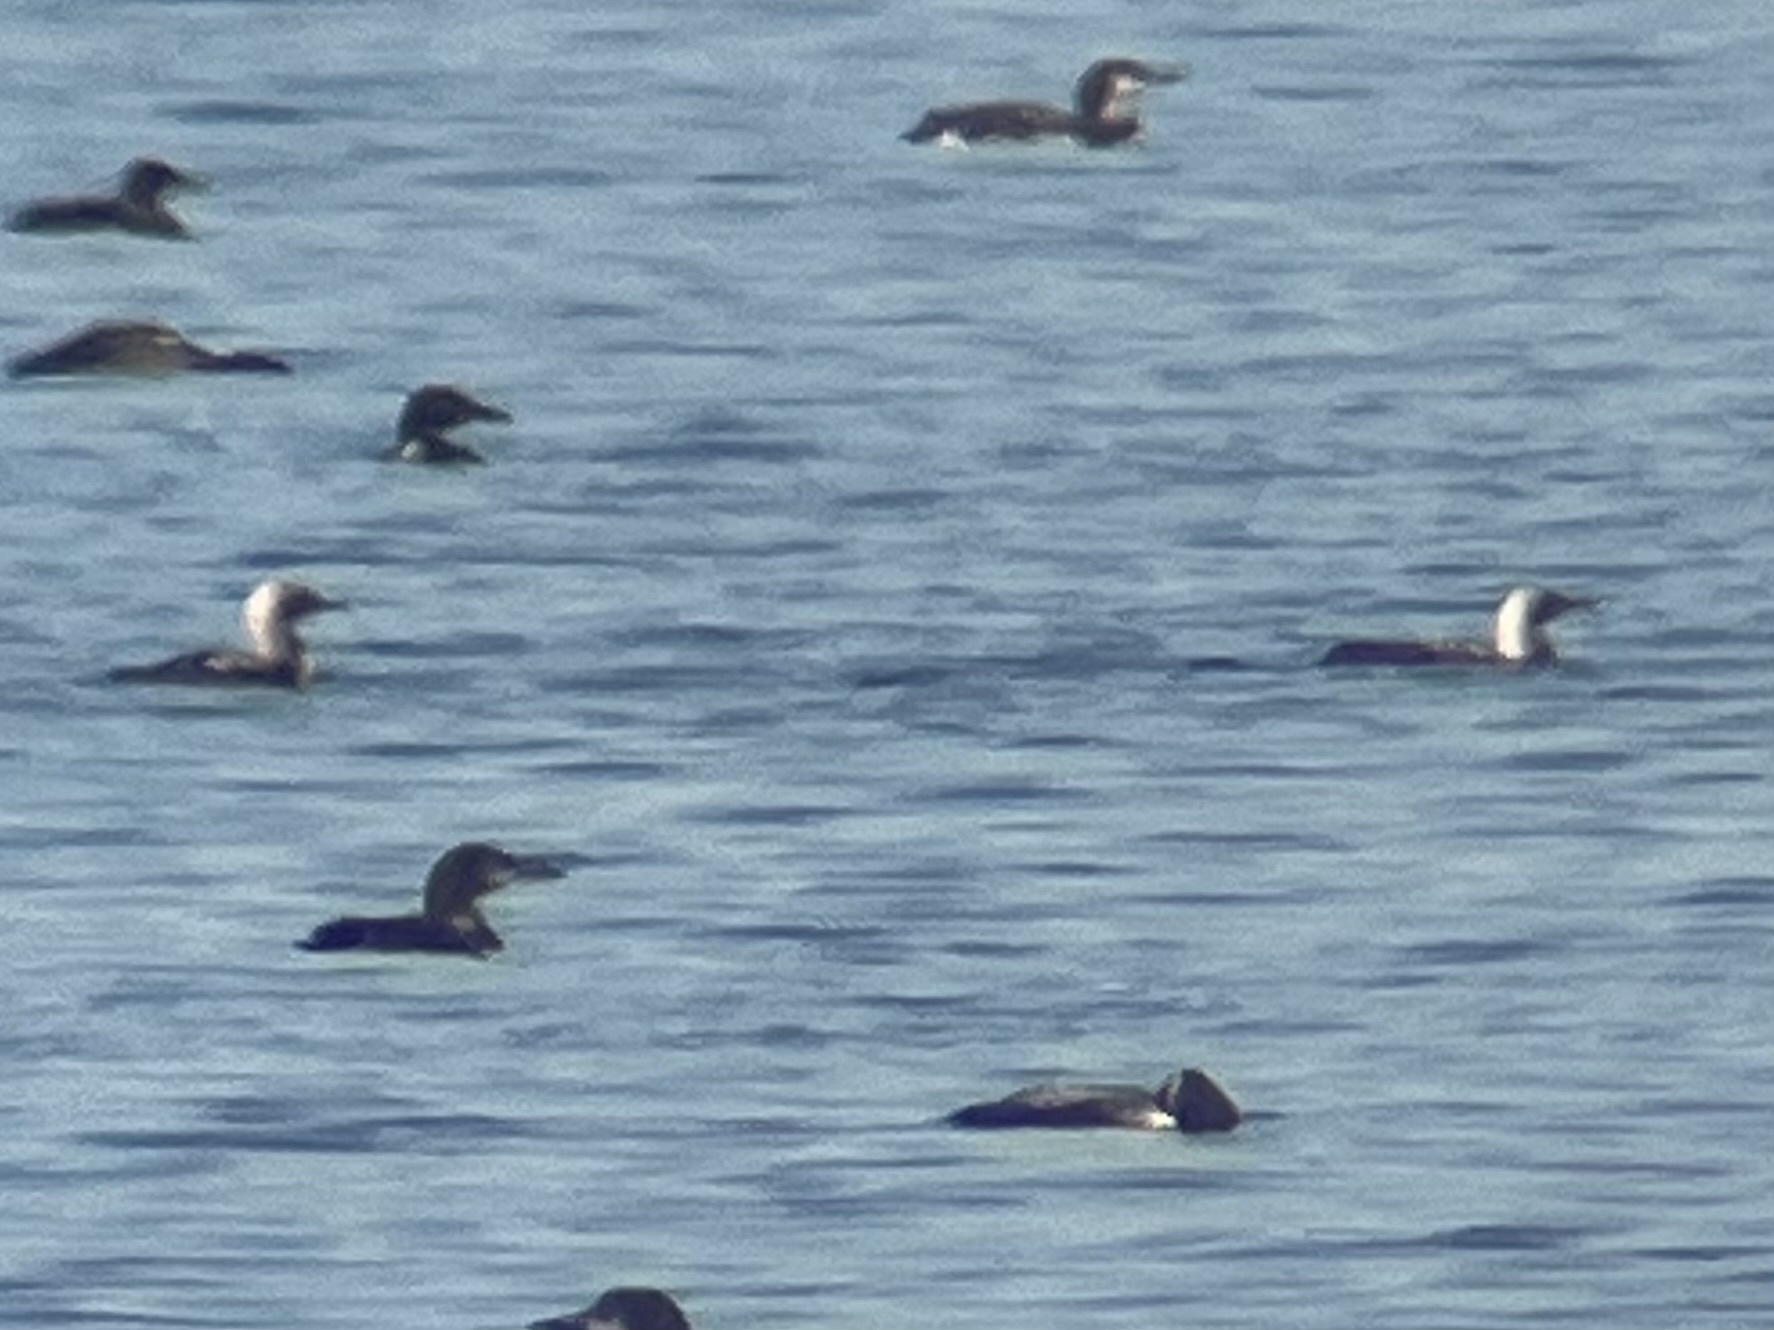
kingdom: Animalia
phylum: Chordata
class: Aves
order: Gaviiformes
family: Gaviidae
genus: Gavia
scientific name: Gavia pacifica
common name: Pacific loon
